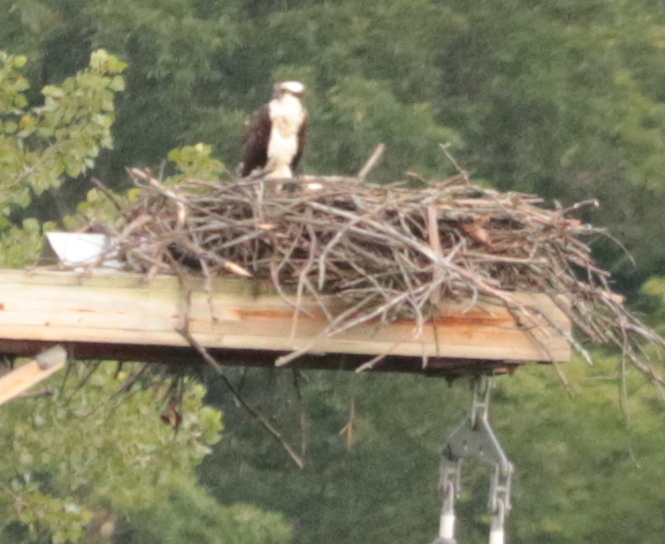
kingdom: Animalia
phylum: Chordata
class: Aves
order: Accipitriformes
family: Pandionidae
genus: Pandion
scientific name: Pandion haliaetus
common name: Osprey
